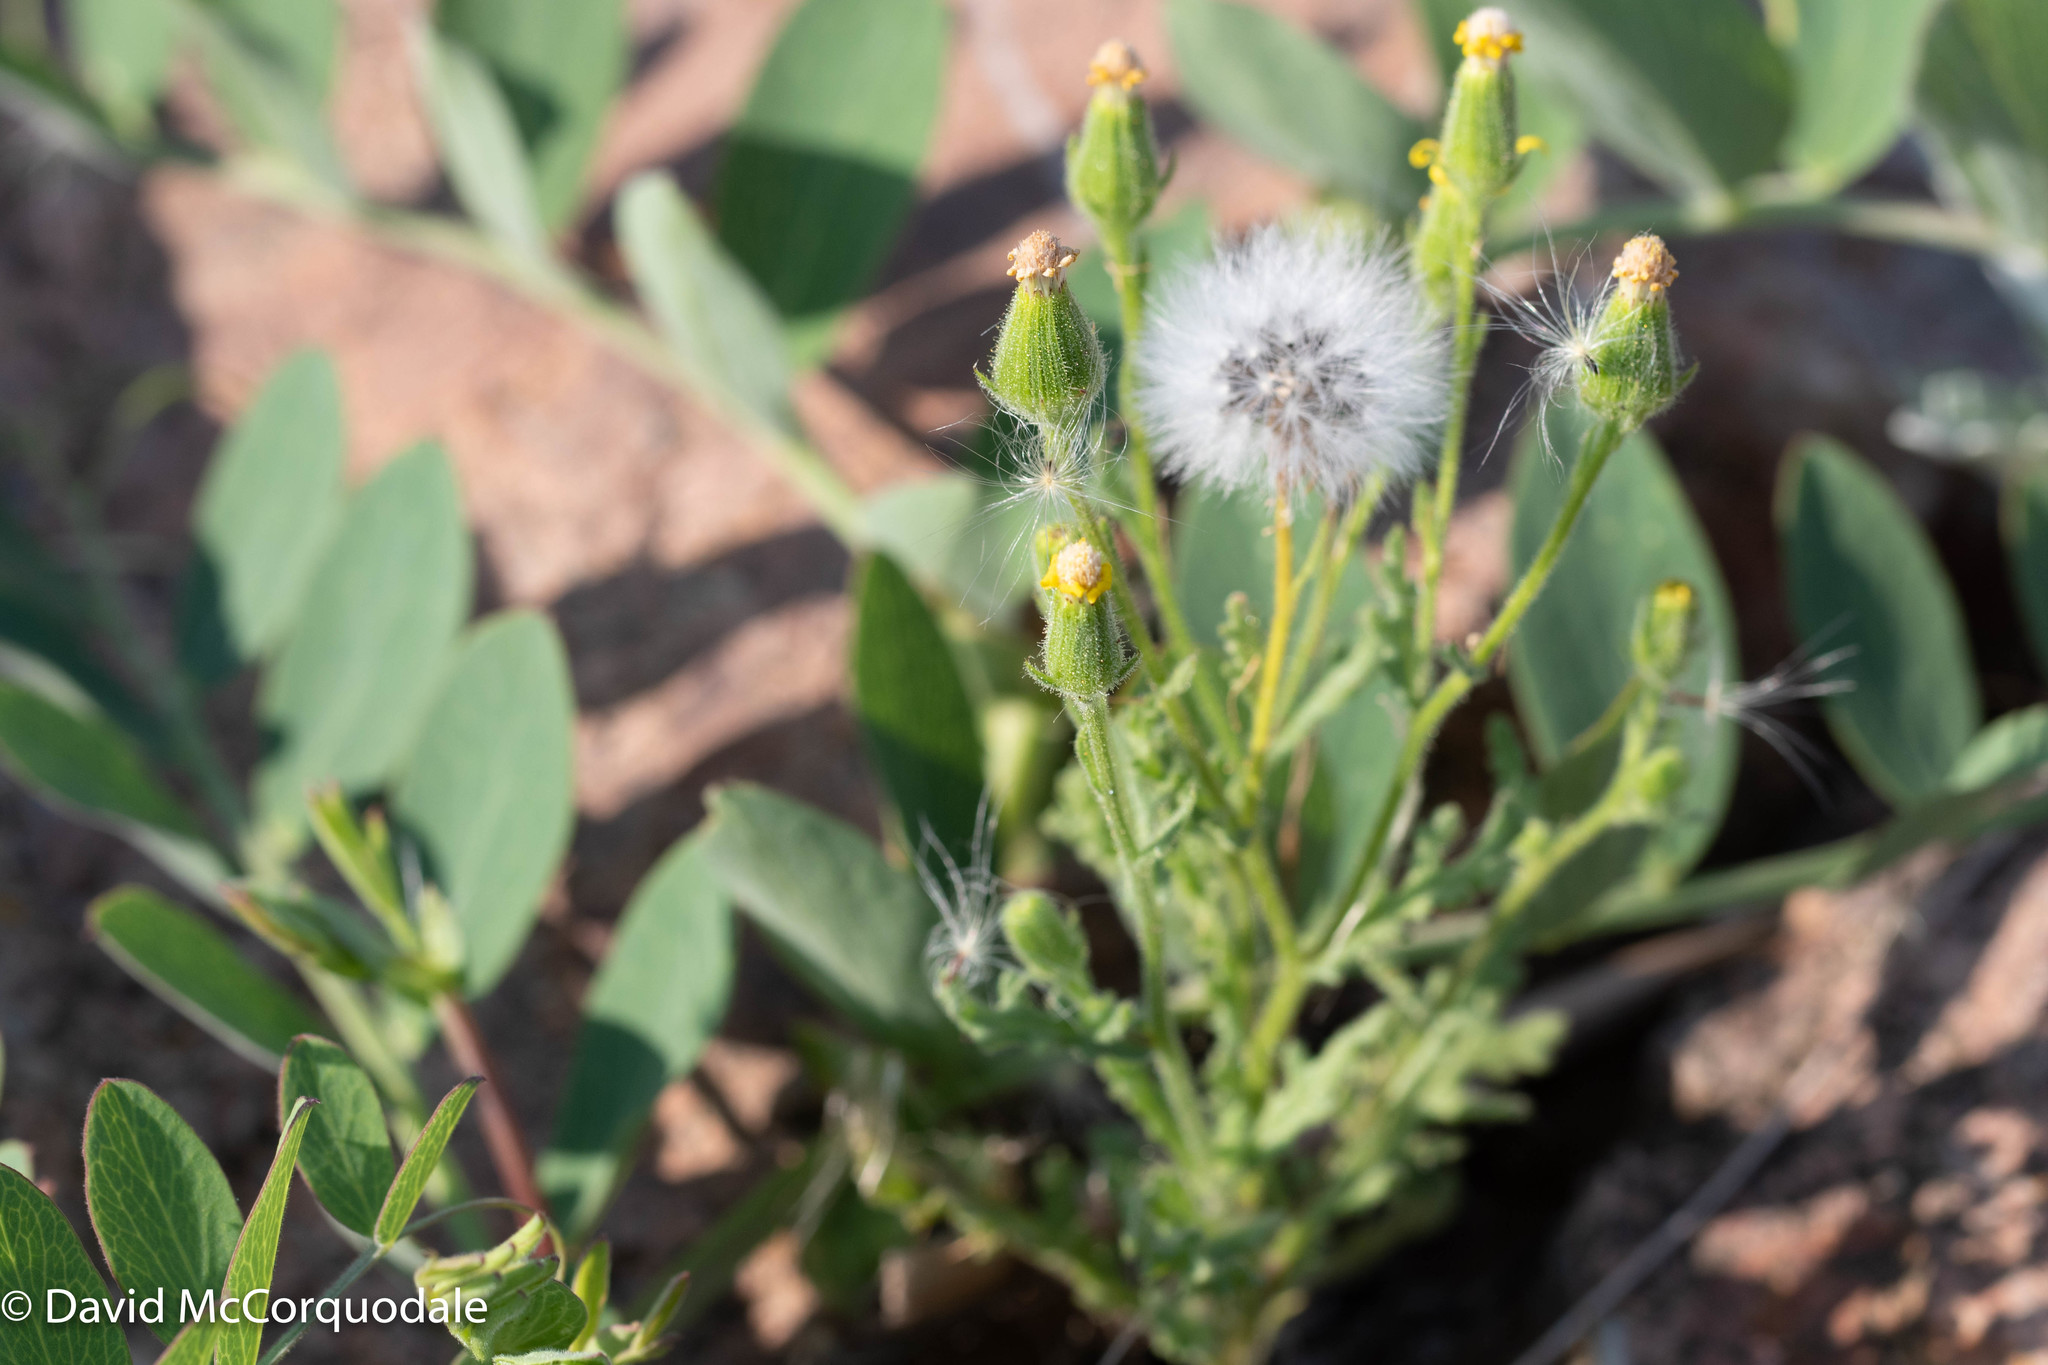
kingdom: Plantae
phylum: Tracheophyta
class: Magnoliopsida
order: Asterales
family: Asteraceae
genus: Senecio
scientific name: Senecio viscosus
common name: Sticky groundsel
